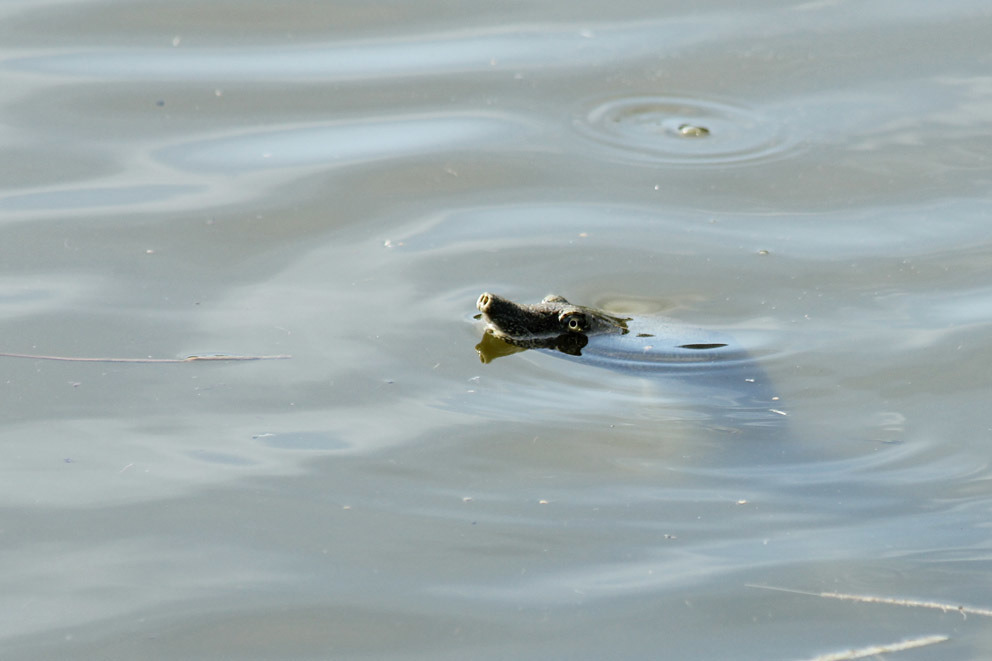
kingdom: Animalia
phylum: Chordata
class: Testudines
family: Trionychidae
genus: Pelodiscus
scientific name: Pelodiscus sinensis
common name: Chinese softshell turtle
